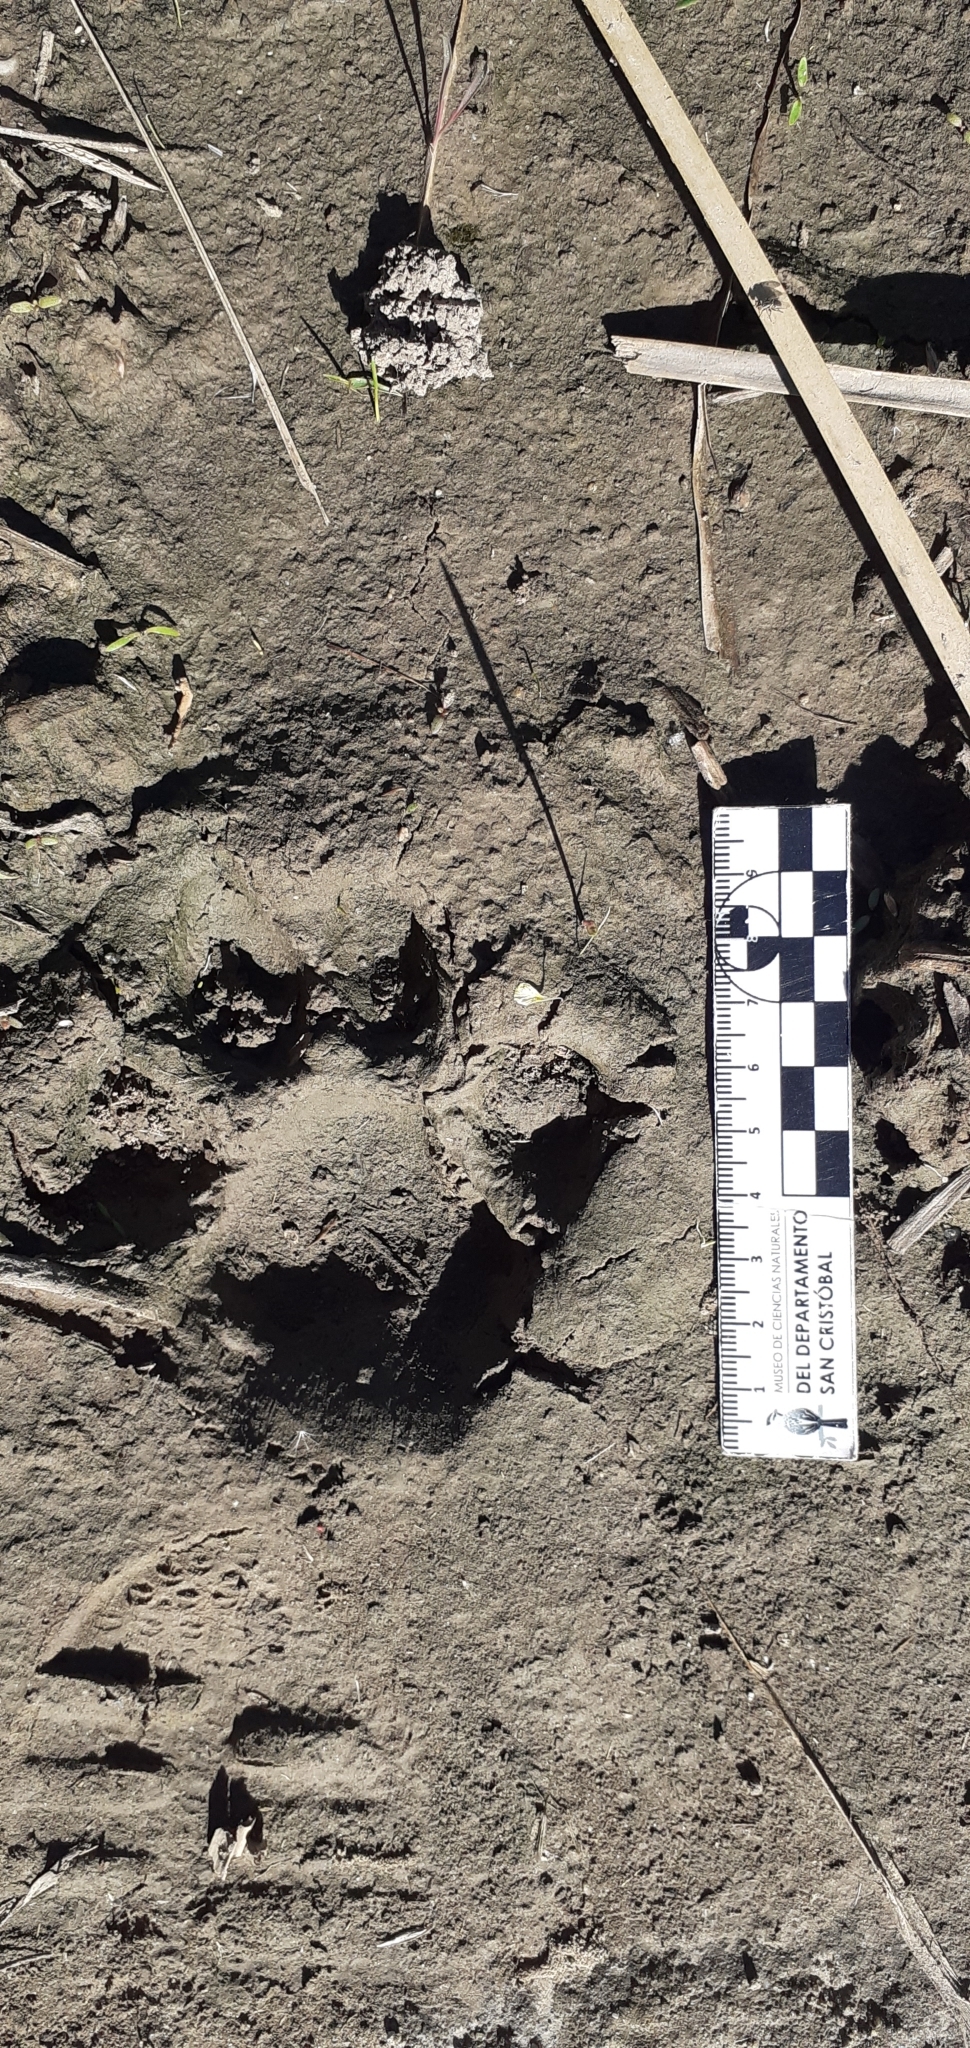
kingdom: Animalia
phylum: Chordata
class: Mammalia
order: Carnivora
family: Felidae
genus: Puma
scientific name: Puma concolor
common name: Puma
